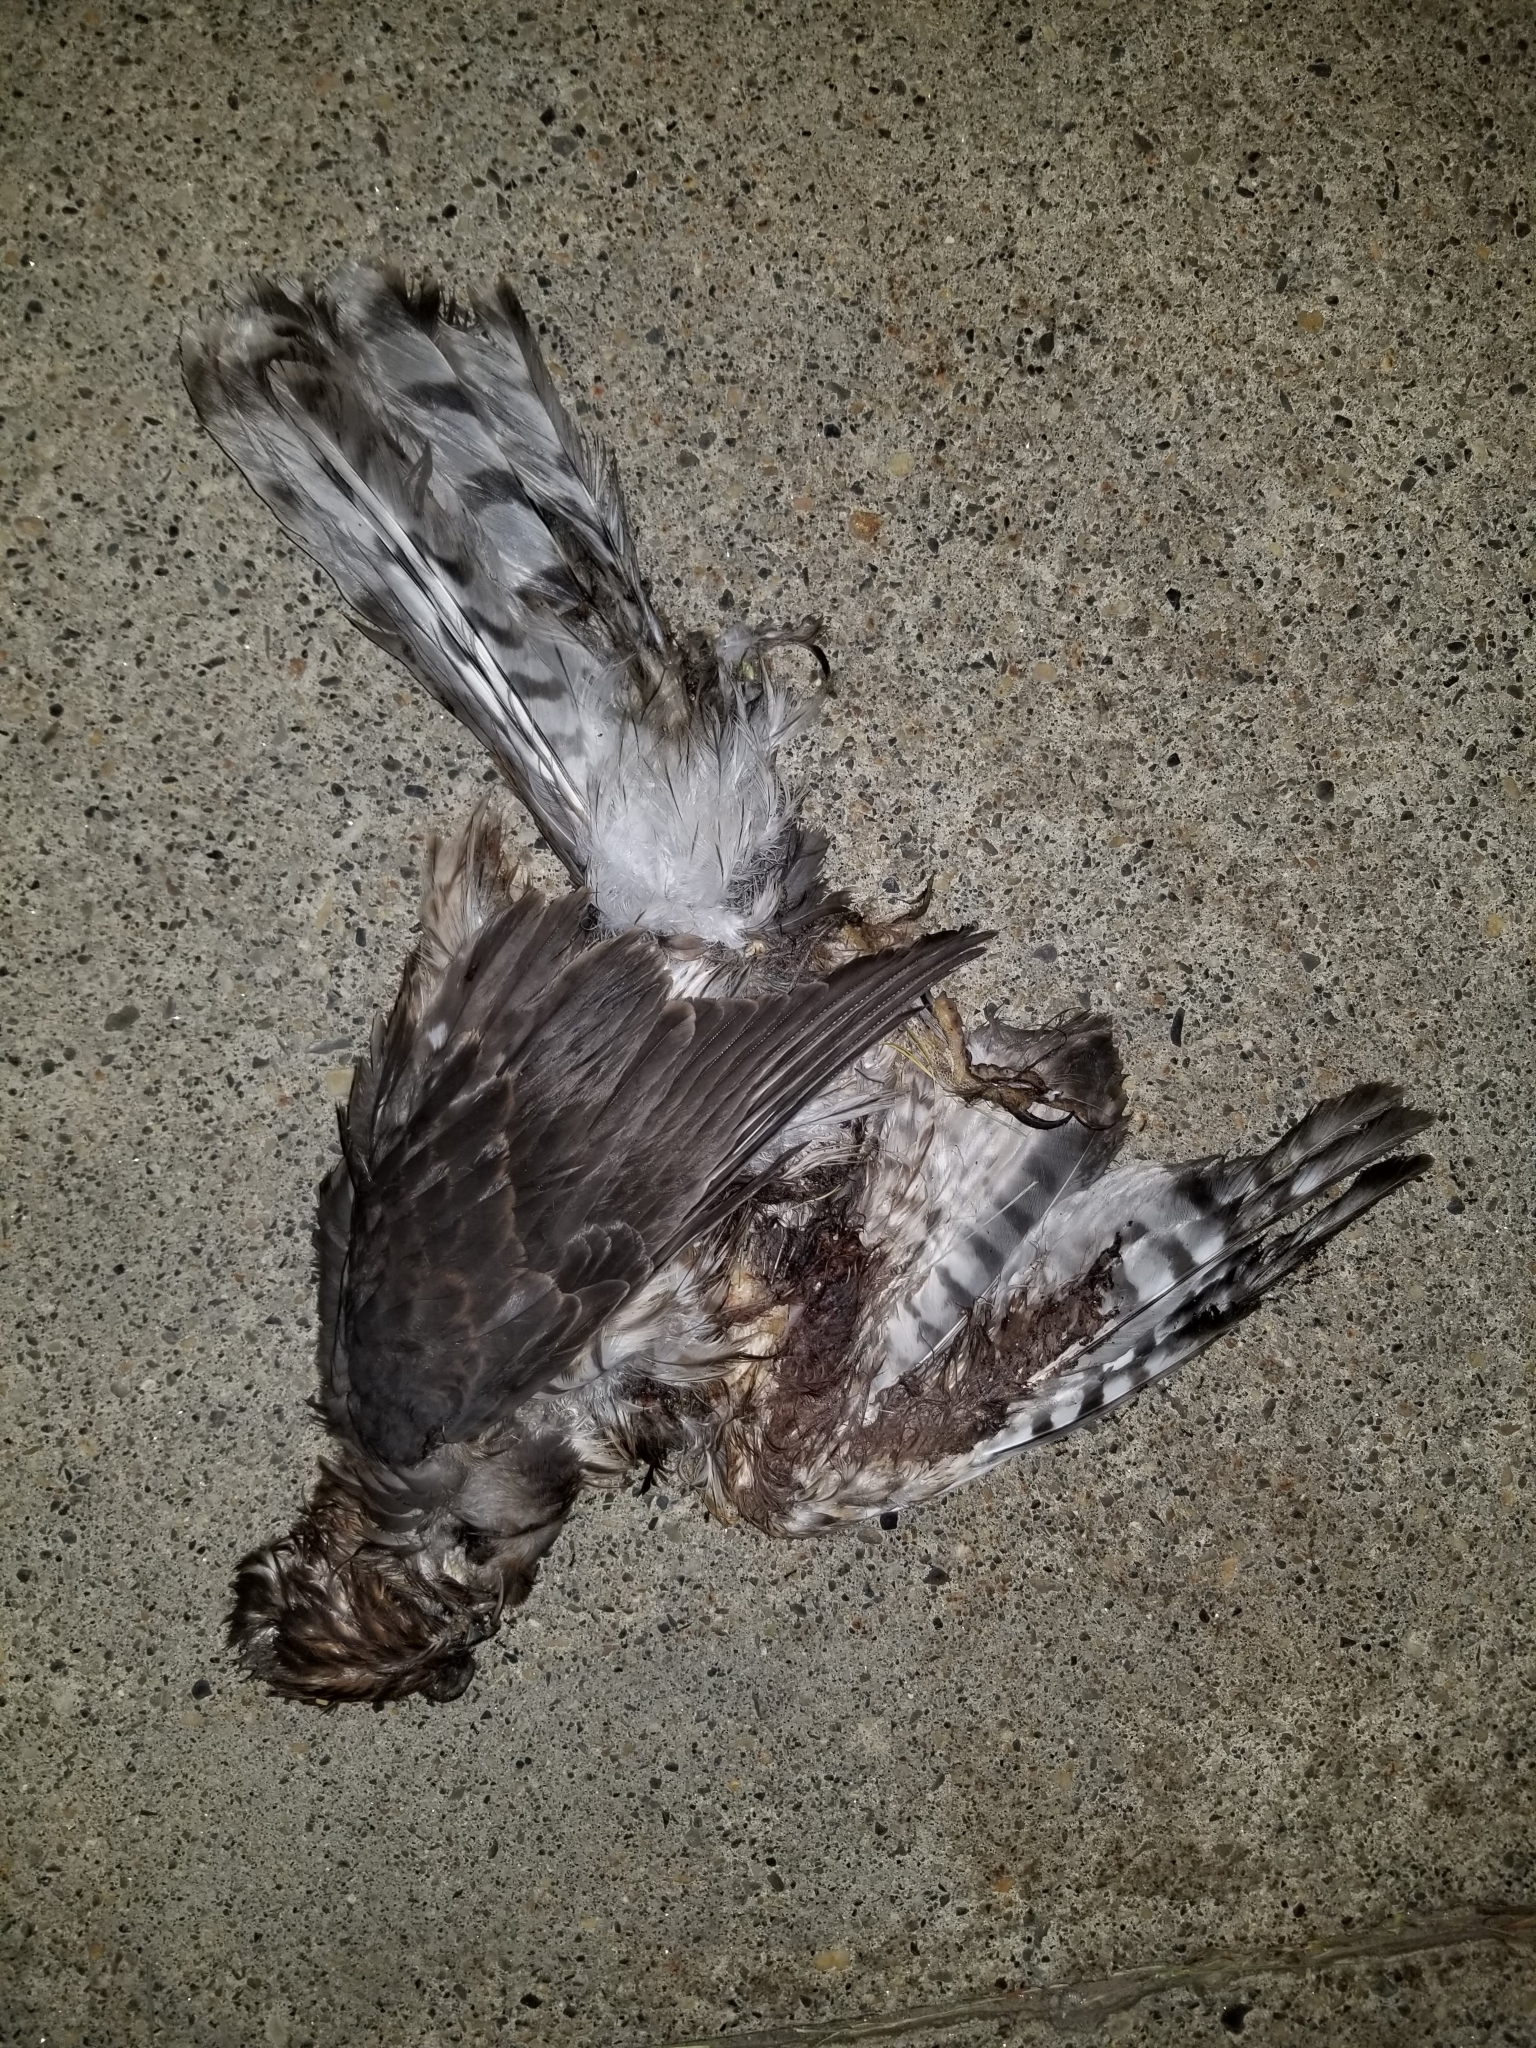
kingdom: Animalia
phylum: Chordata
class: Aves
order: Accipitriformes
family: Accipitridae
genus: Accipiter
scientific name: Accipiter cooperii
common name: Cooper's hawk
